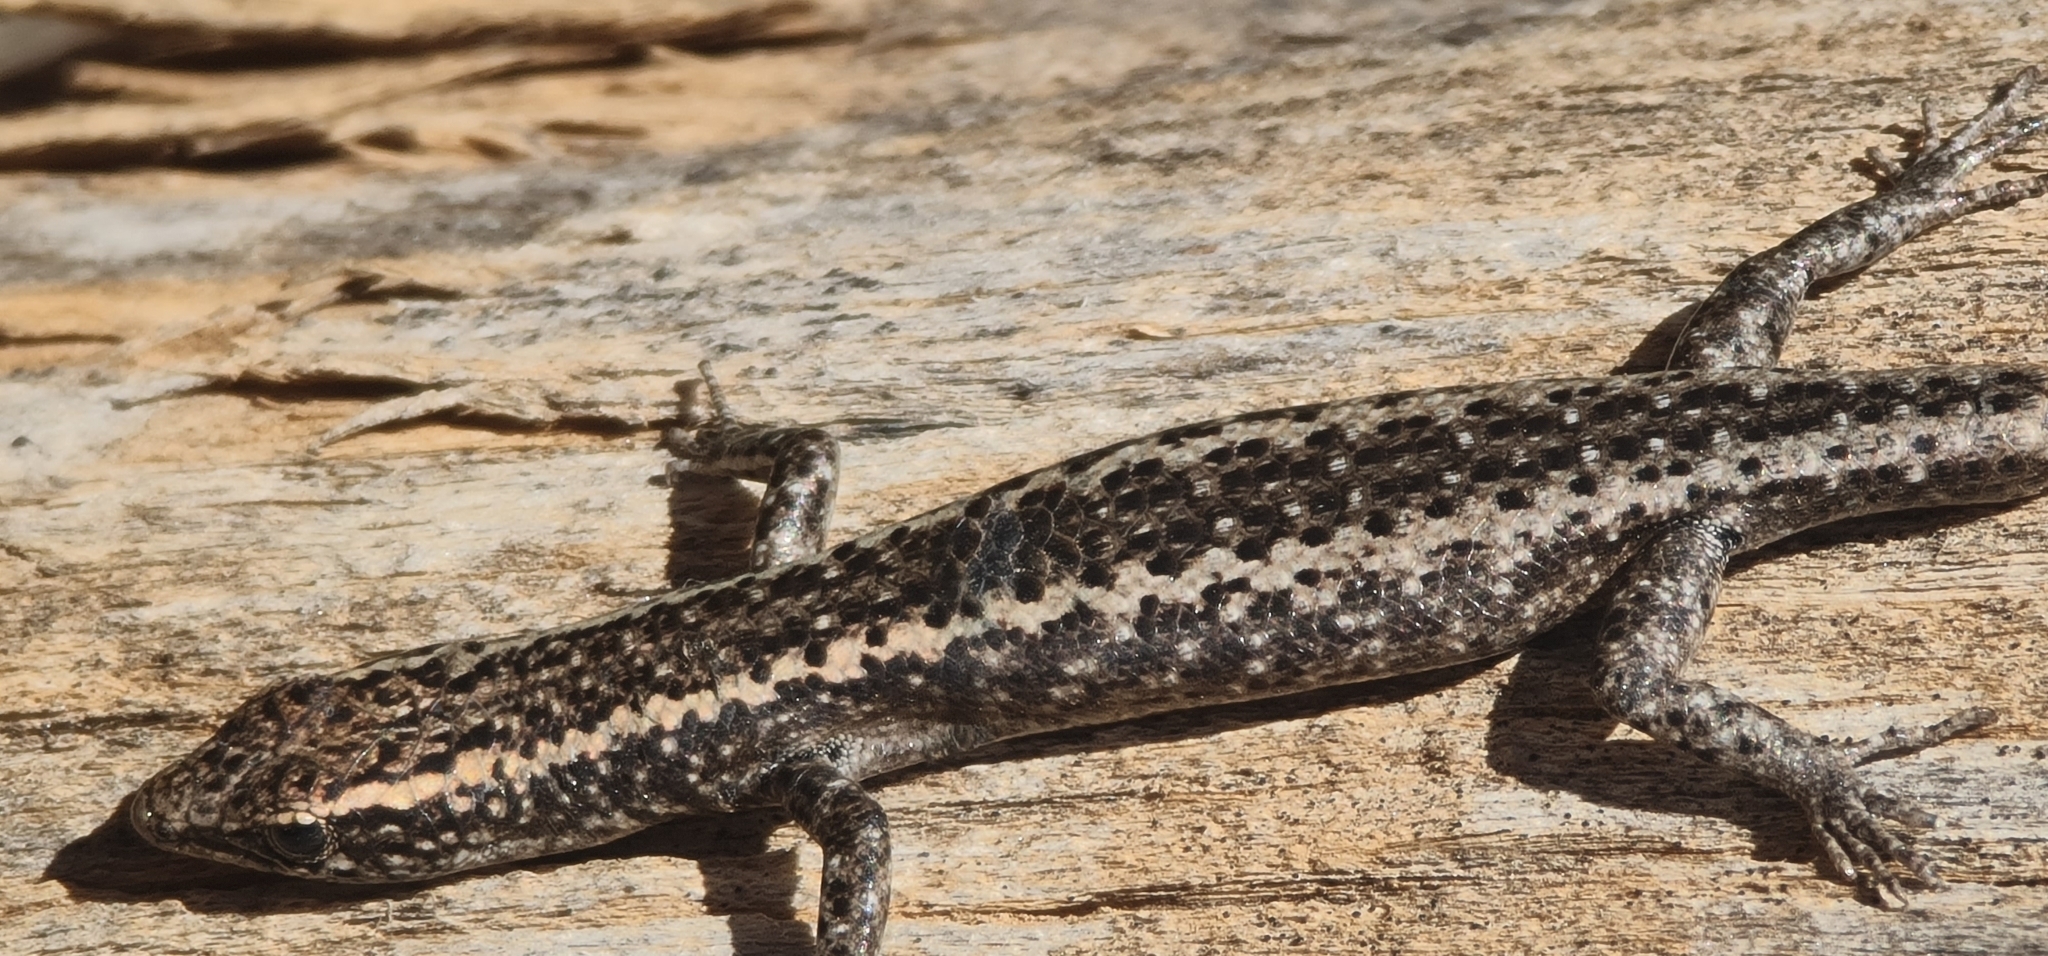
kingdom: Animalia
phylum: Chordata
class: Squamata
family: Scincidae
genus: Cryptoblepharus
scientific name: Cryptoblepharus pannosus
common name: Ragged snake-eyed skink
